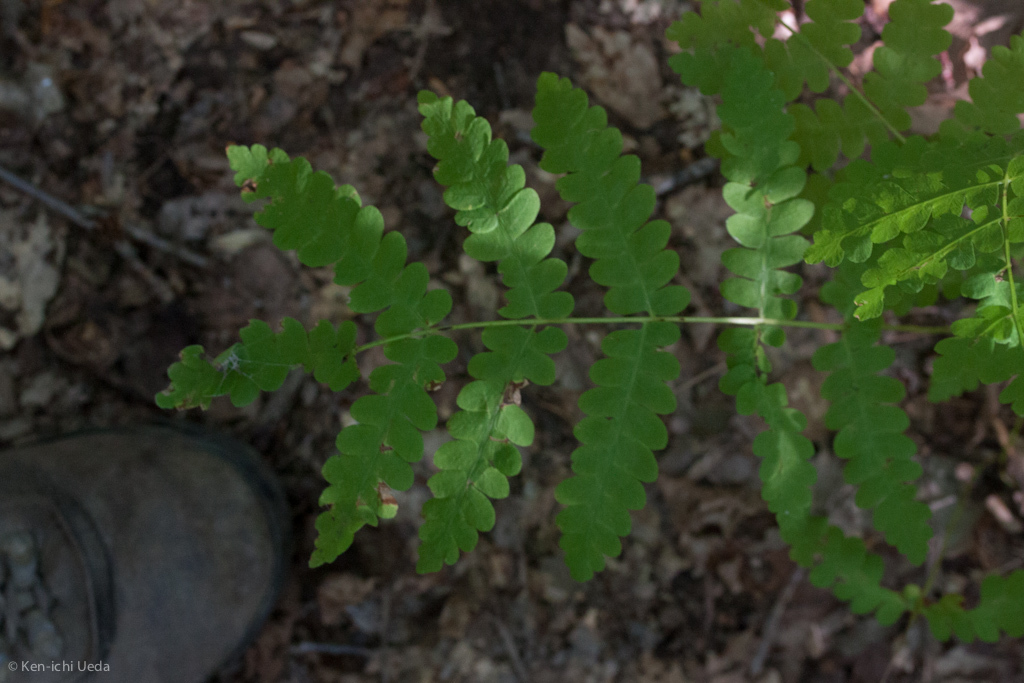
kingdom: Plantae
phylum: Tracheophyta
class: Polypodiopsida
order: Osmundales
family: Osmundaceae
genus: Claytosmunda
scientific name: Claytosmunda claytoniana
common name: Clayton's fern
